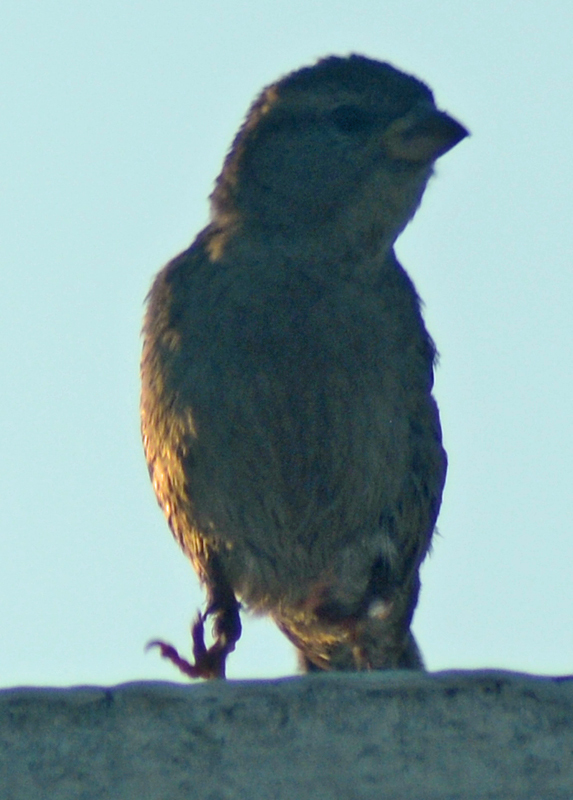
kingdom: Animalia
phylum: Chordata
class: Aves
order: Passeriformes
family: Passeridae
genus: Passer
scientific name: Passer domesticus
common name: House sparrow
